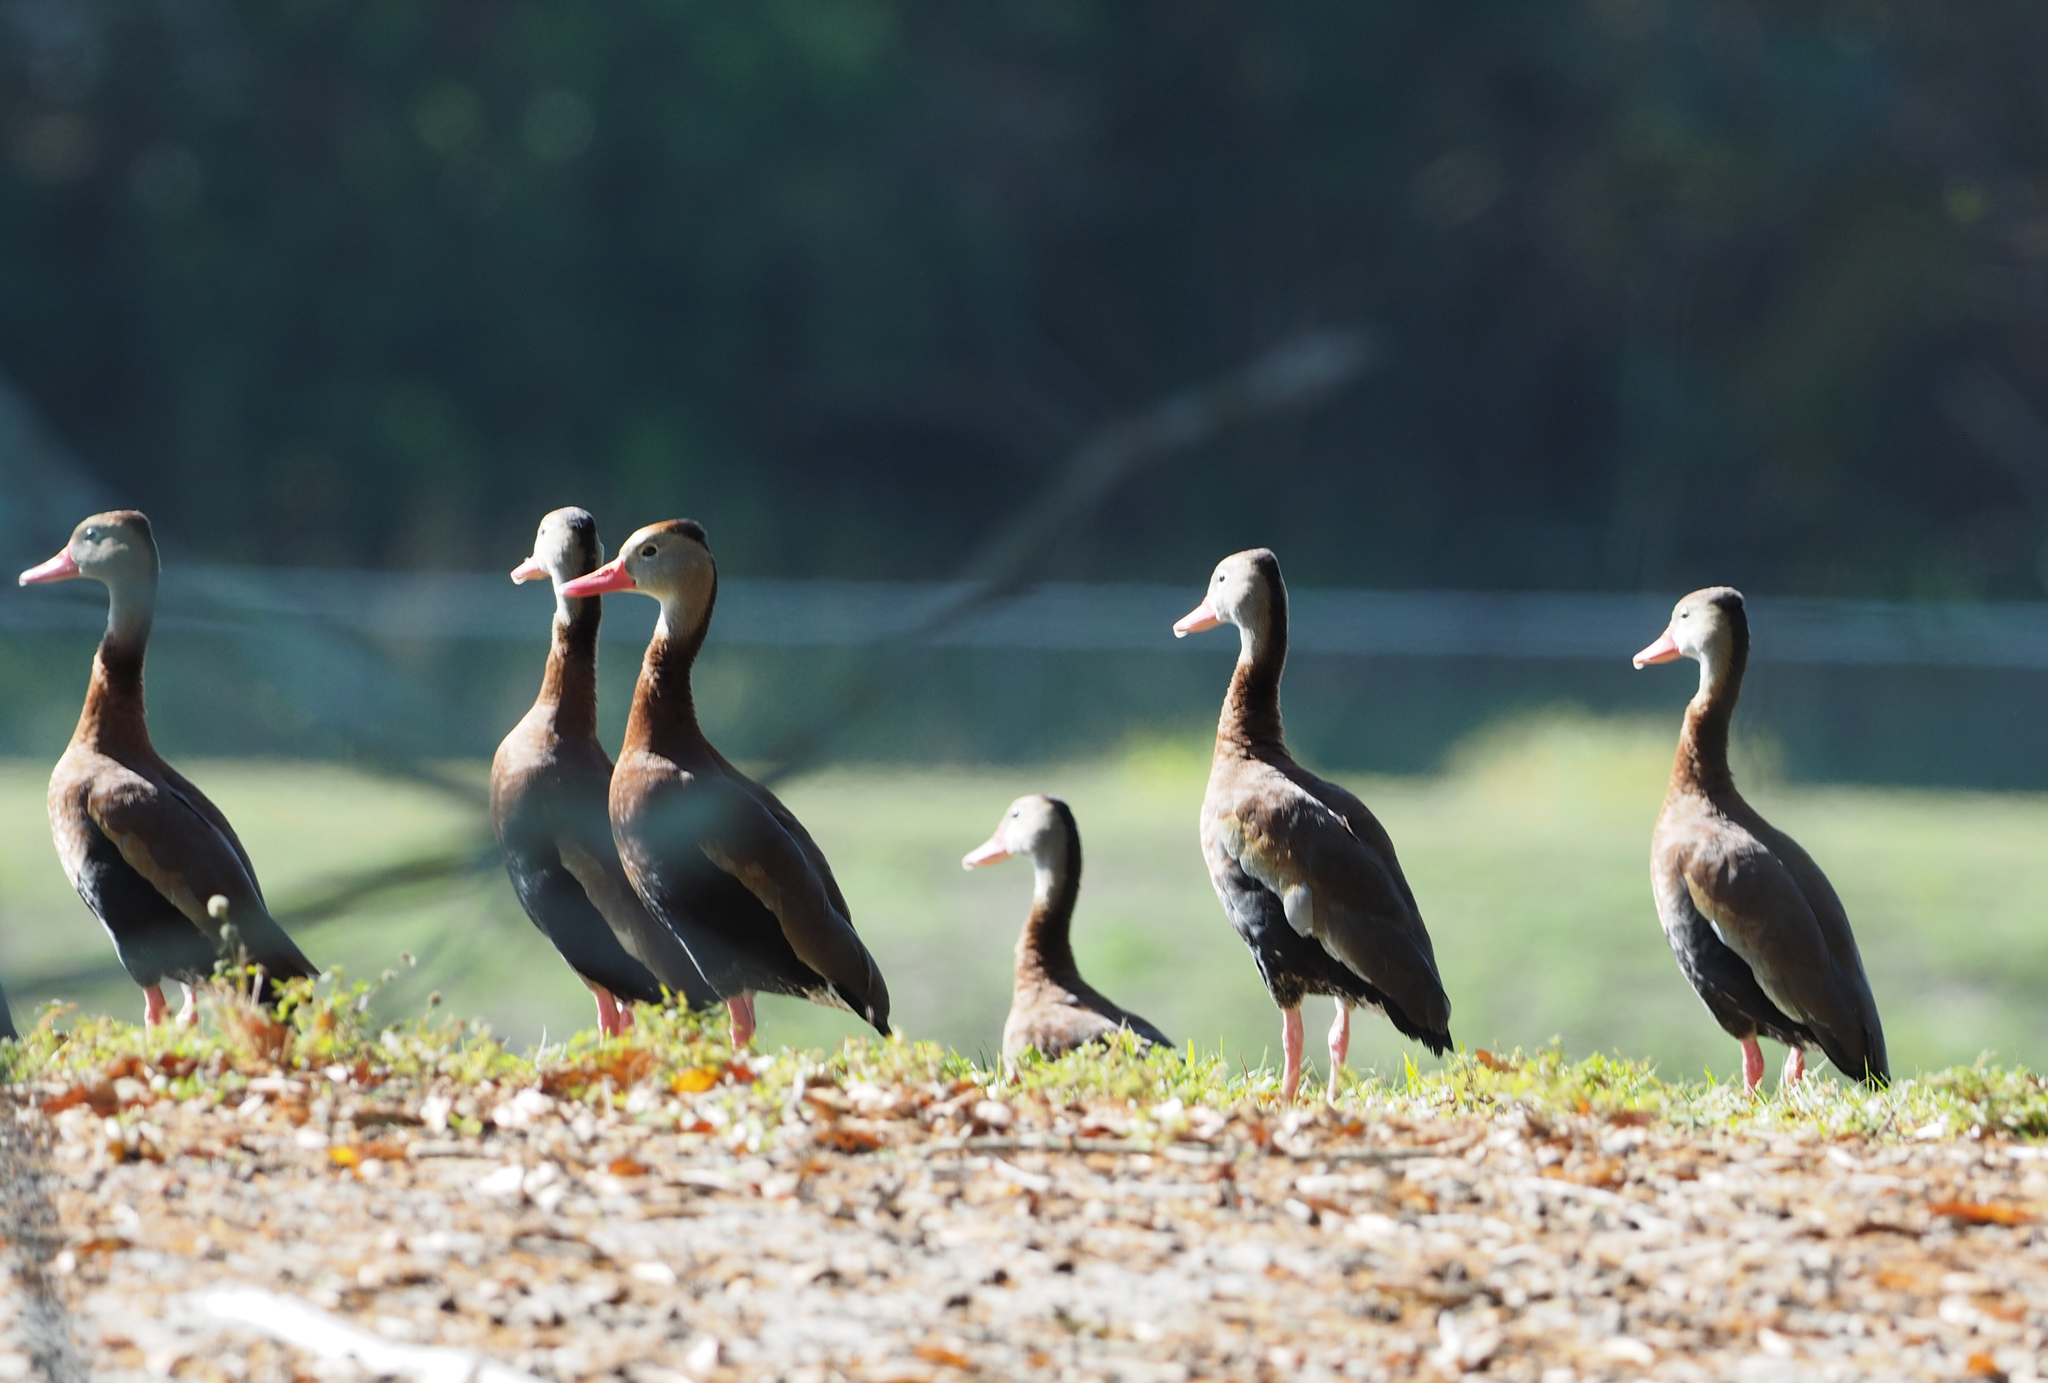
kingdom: Animalia
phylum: Chordata
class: Aves
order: Anseriformes
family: Anatidae
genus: Dendrocygna
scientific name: Dendrocygna autumnalis
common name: Black-bellied whistling duck
